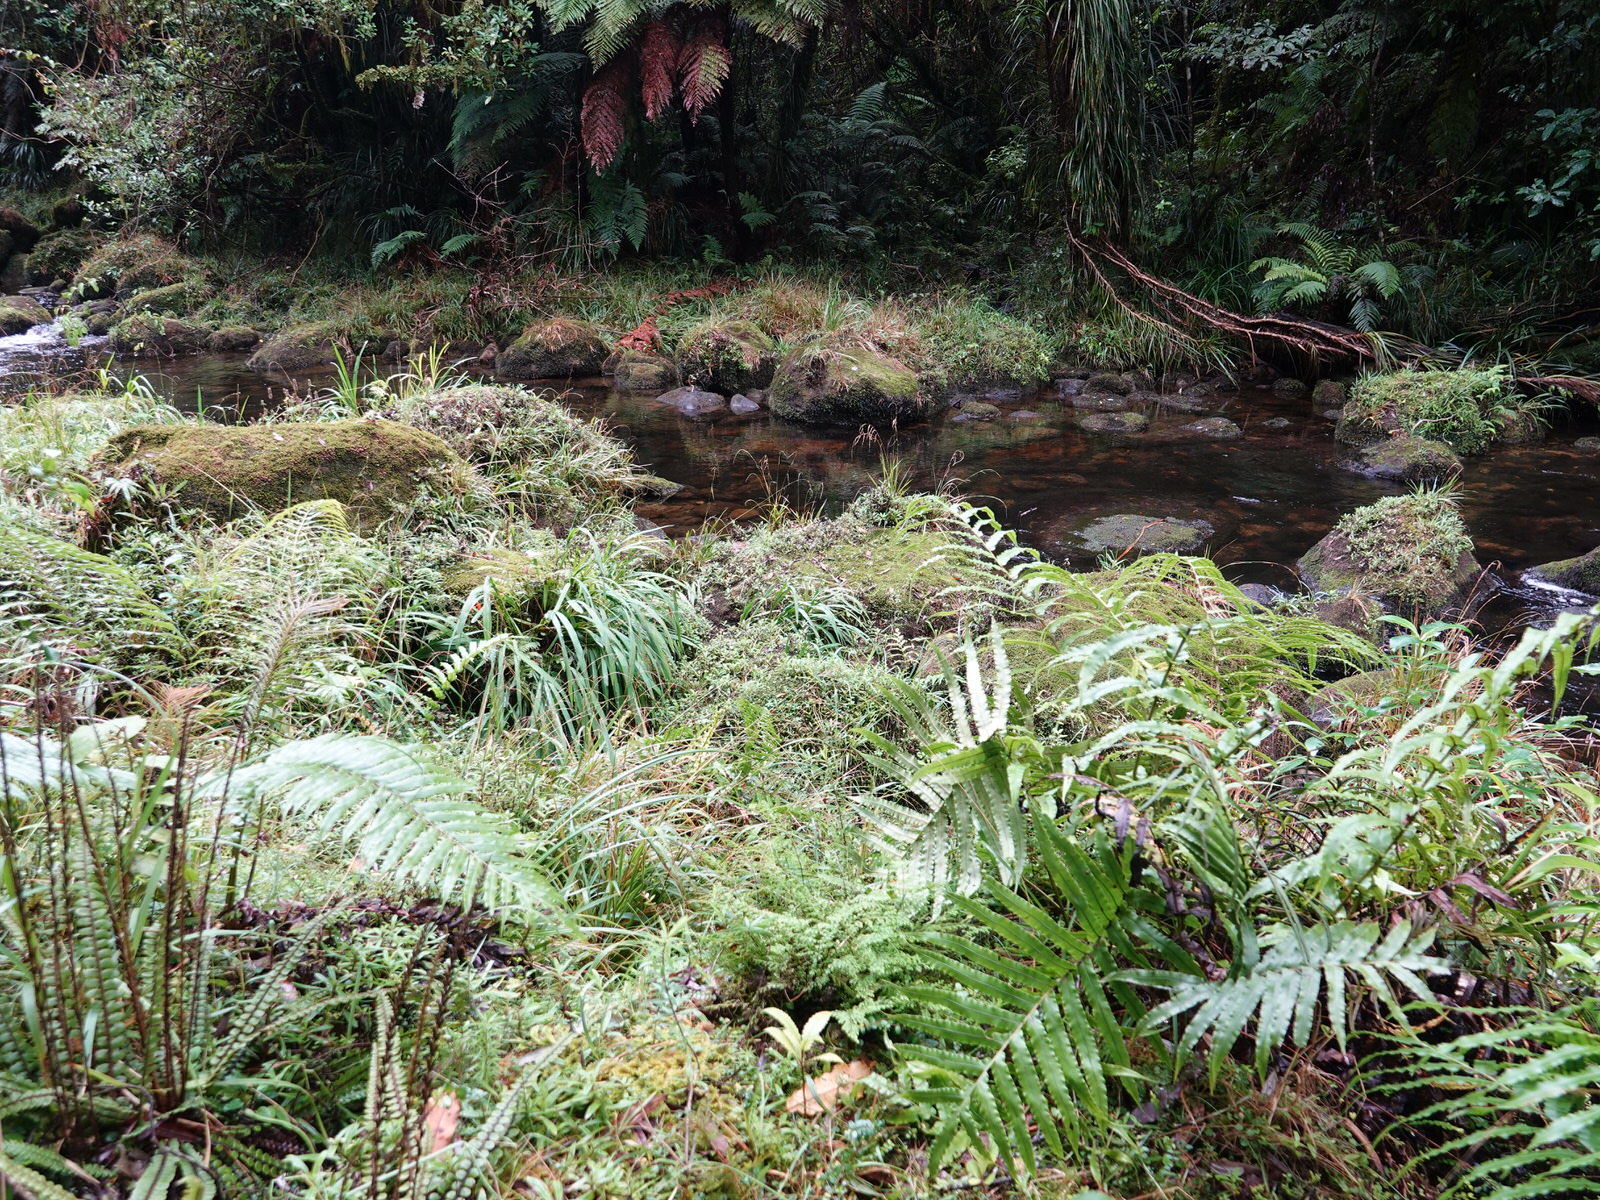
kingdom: Plantae
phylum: Tracheophyta
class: Polypodiopsida
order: Polypodiales
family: Lindsaeaceae
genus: Odontosoria
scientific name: Odontosoria viridis
